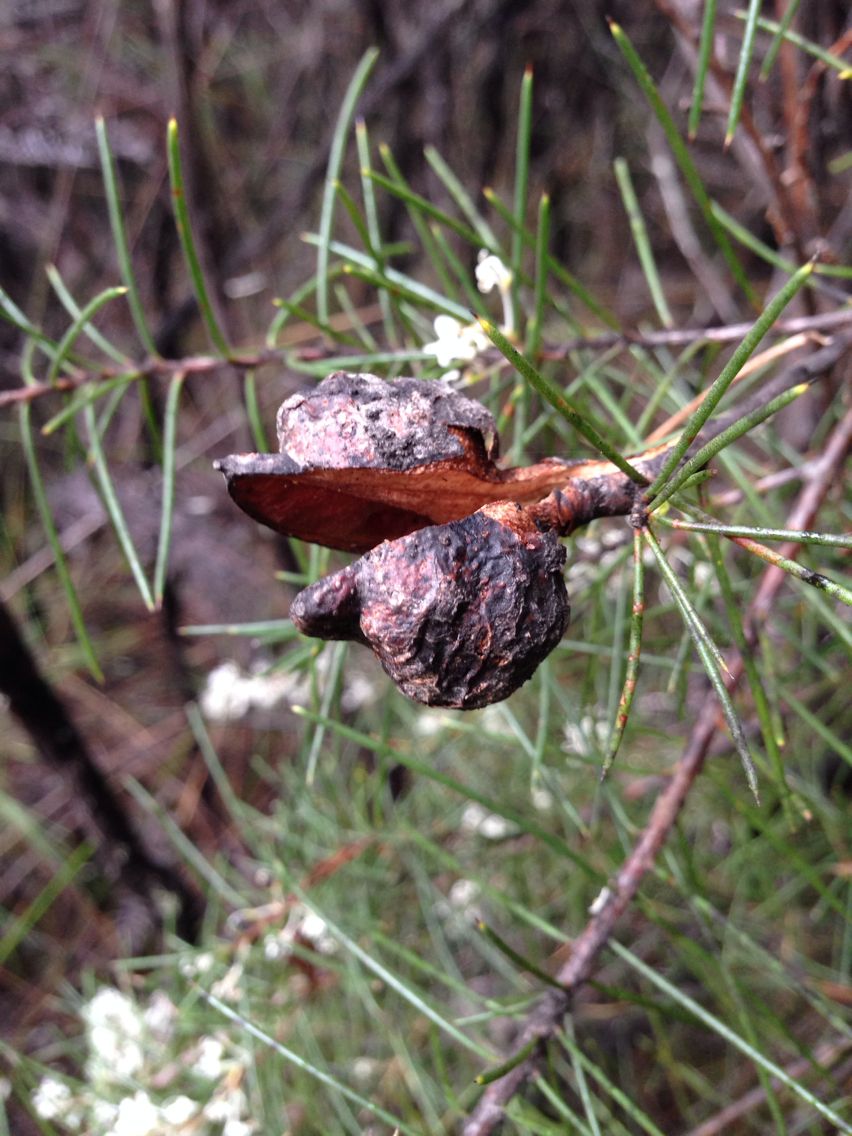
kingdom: Plantae
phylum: Tracheophyta
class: Magnoliopsida
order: Proteales
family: Proteaceae
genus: Hakea
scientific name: Hakea sericea
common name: Needle bush
